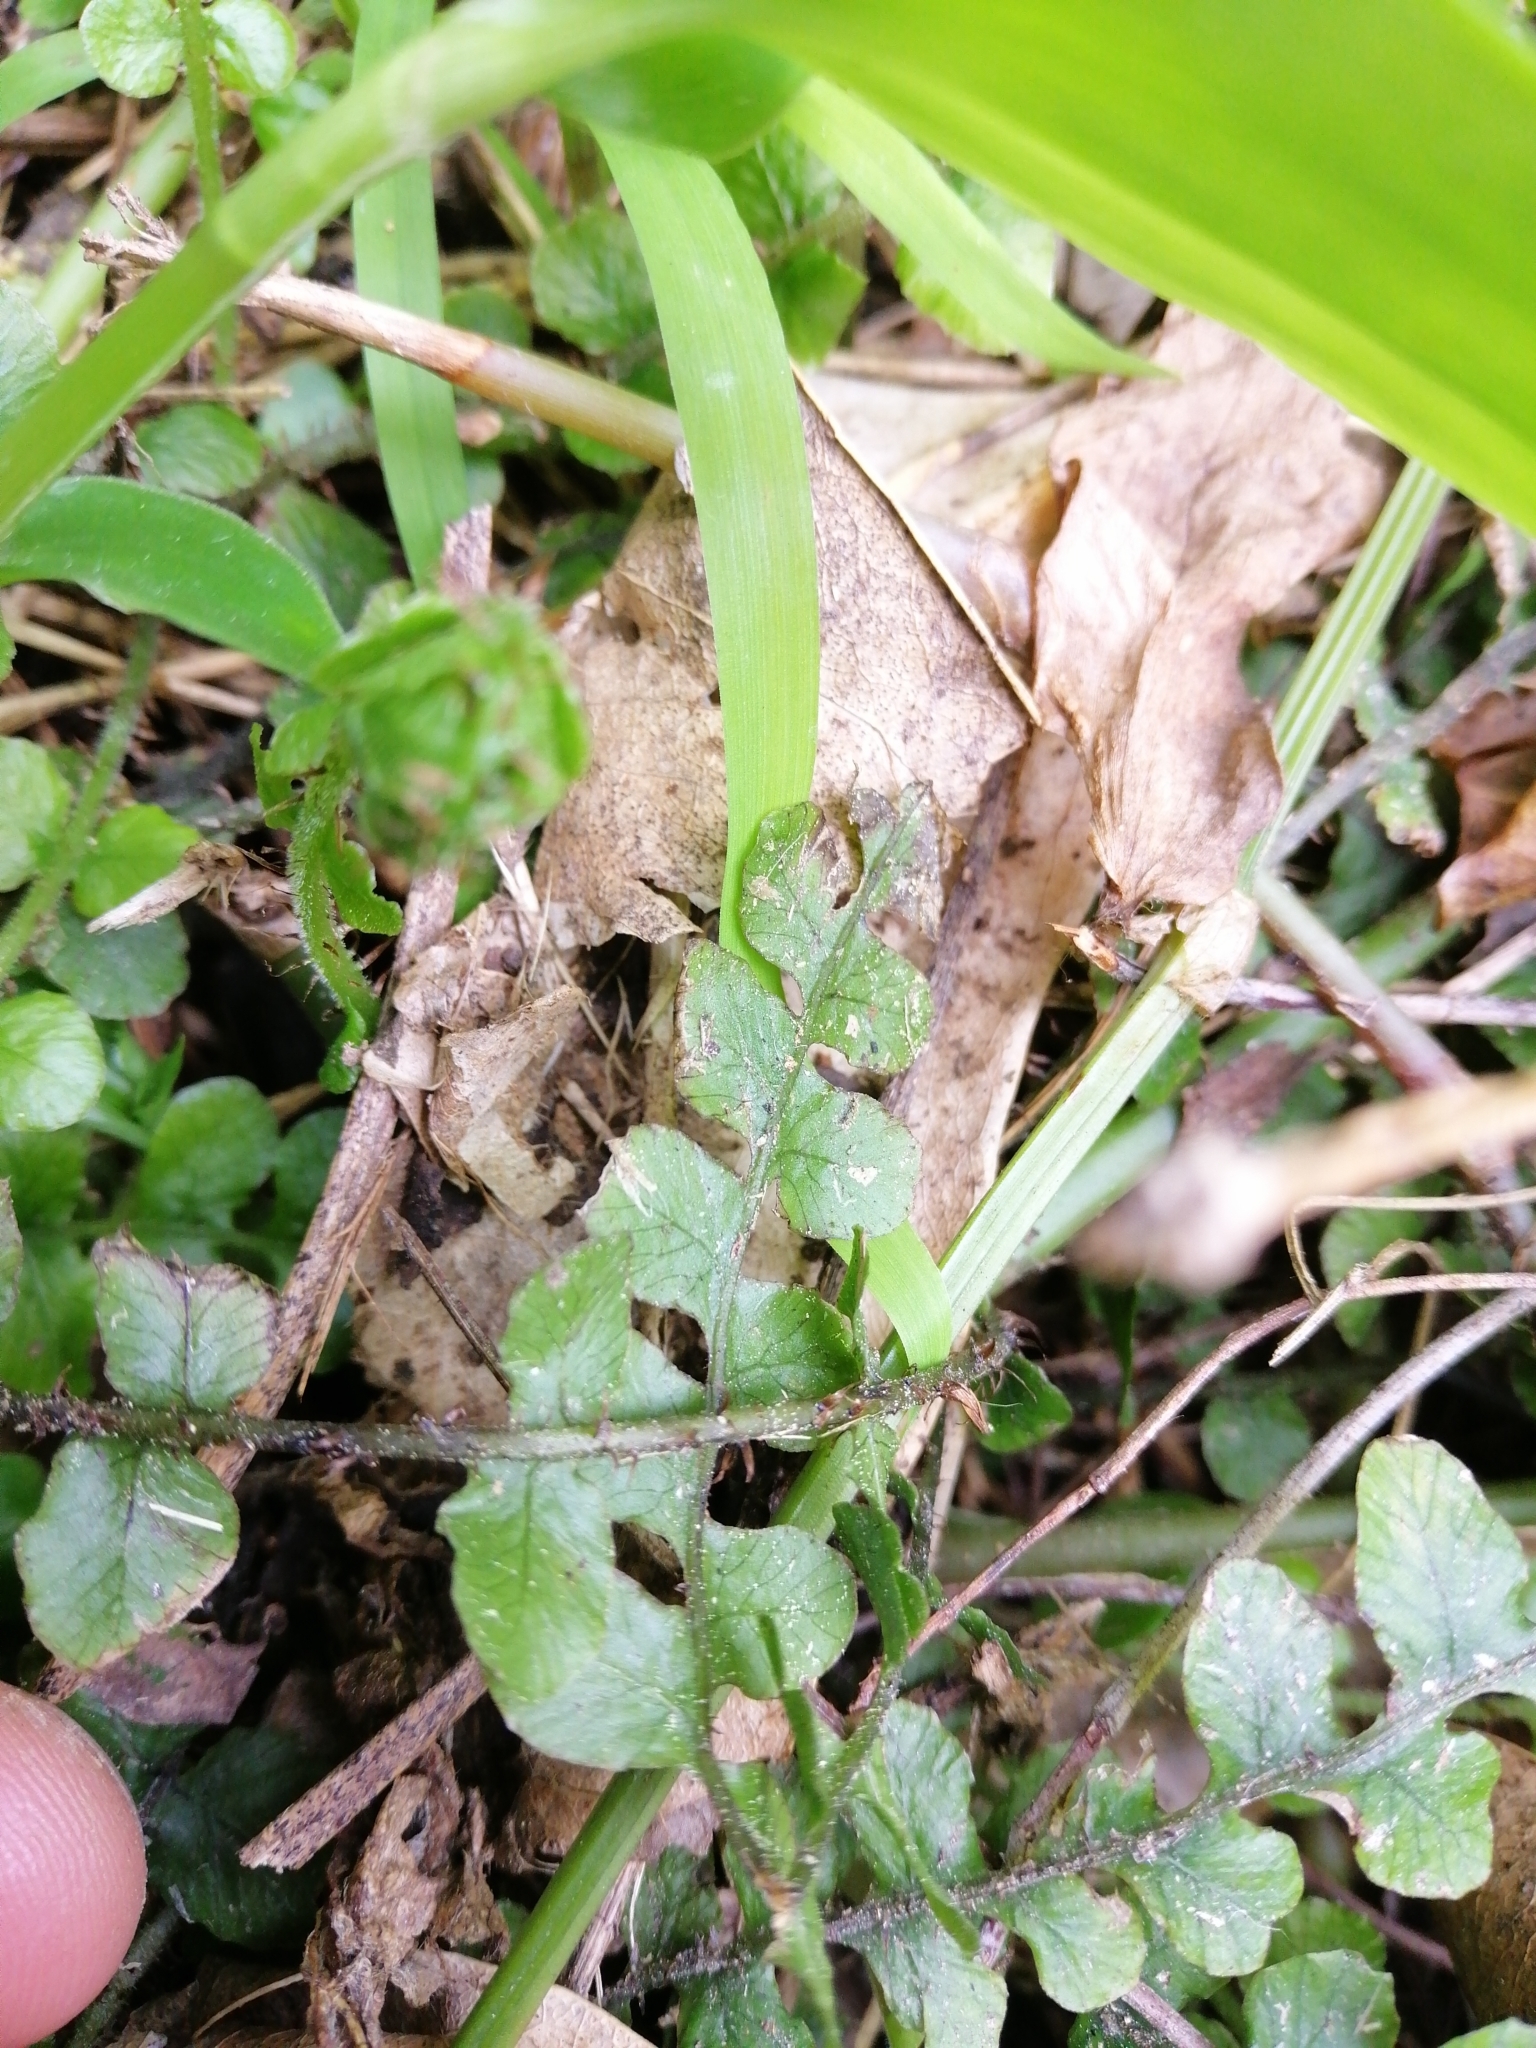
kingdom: Plantae
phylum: Tracheophyta
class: Polypodiopsida
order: Polypodiales
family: Blechnaceae
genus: Cranfillia
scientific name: Cranfillia fluviatilis
